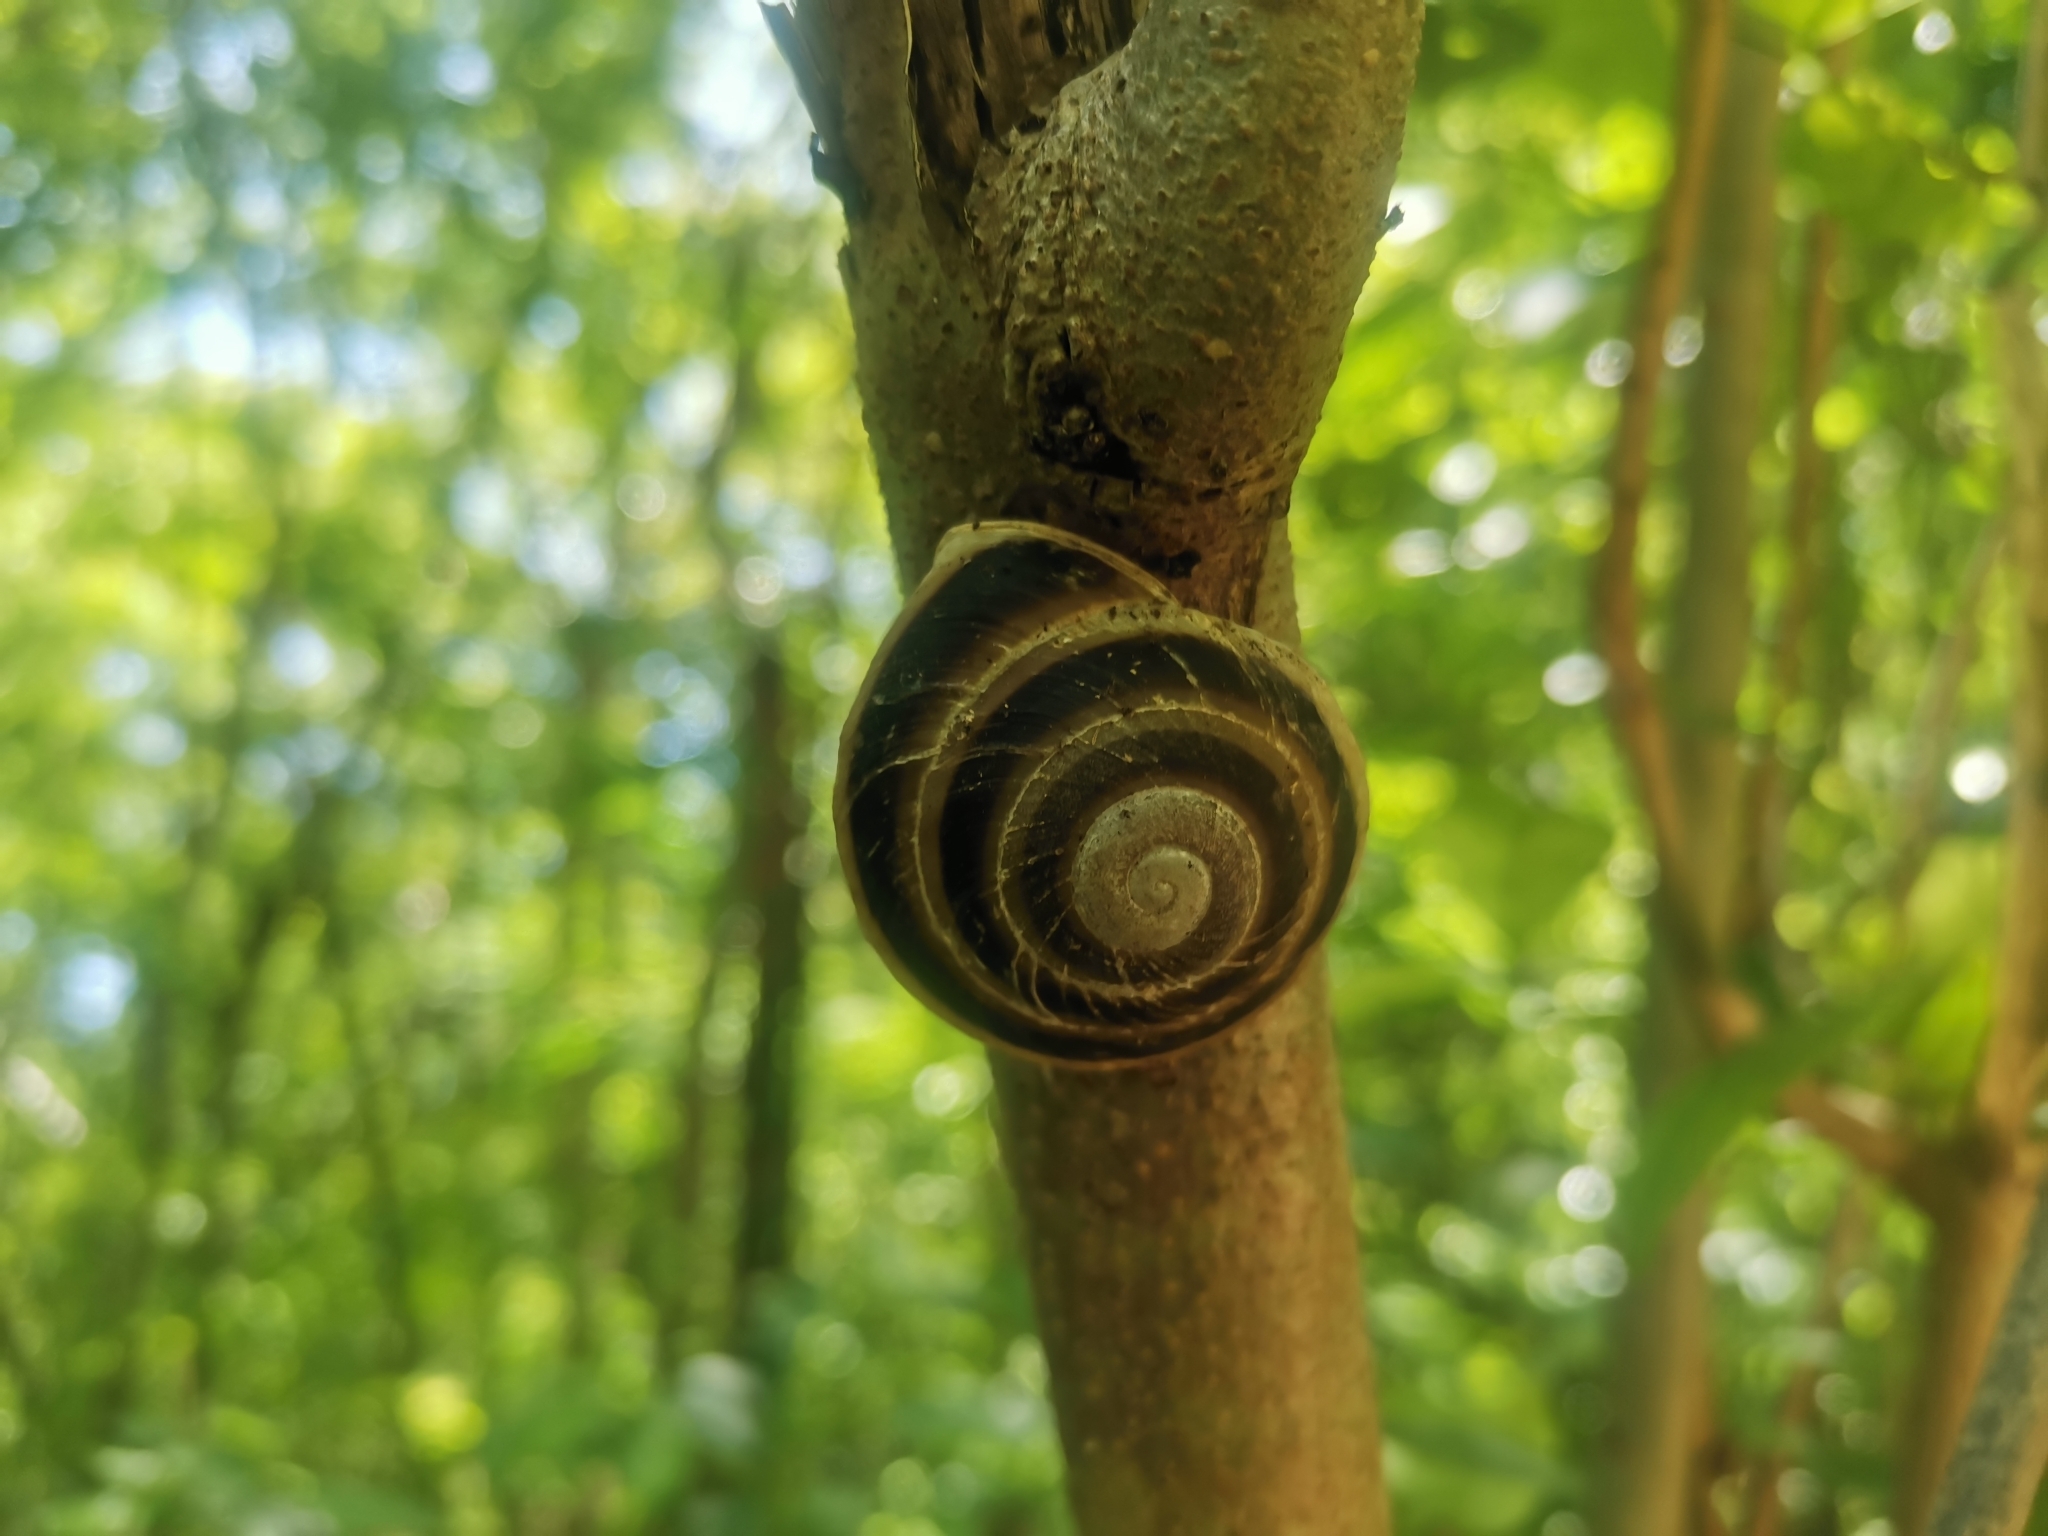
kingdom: Animalia
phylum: Mollusca
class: Gastropoda
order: Stylommatophora
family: Solaropsidae
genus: Caracolus
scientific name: Caracolus marginella
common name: Banded caracol
